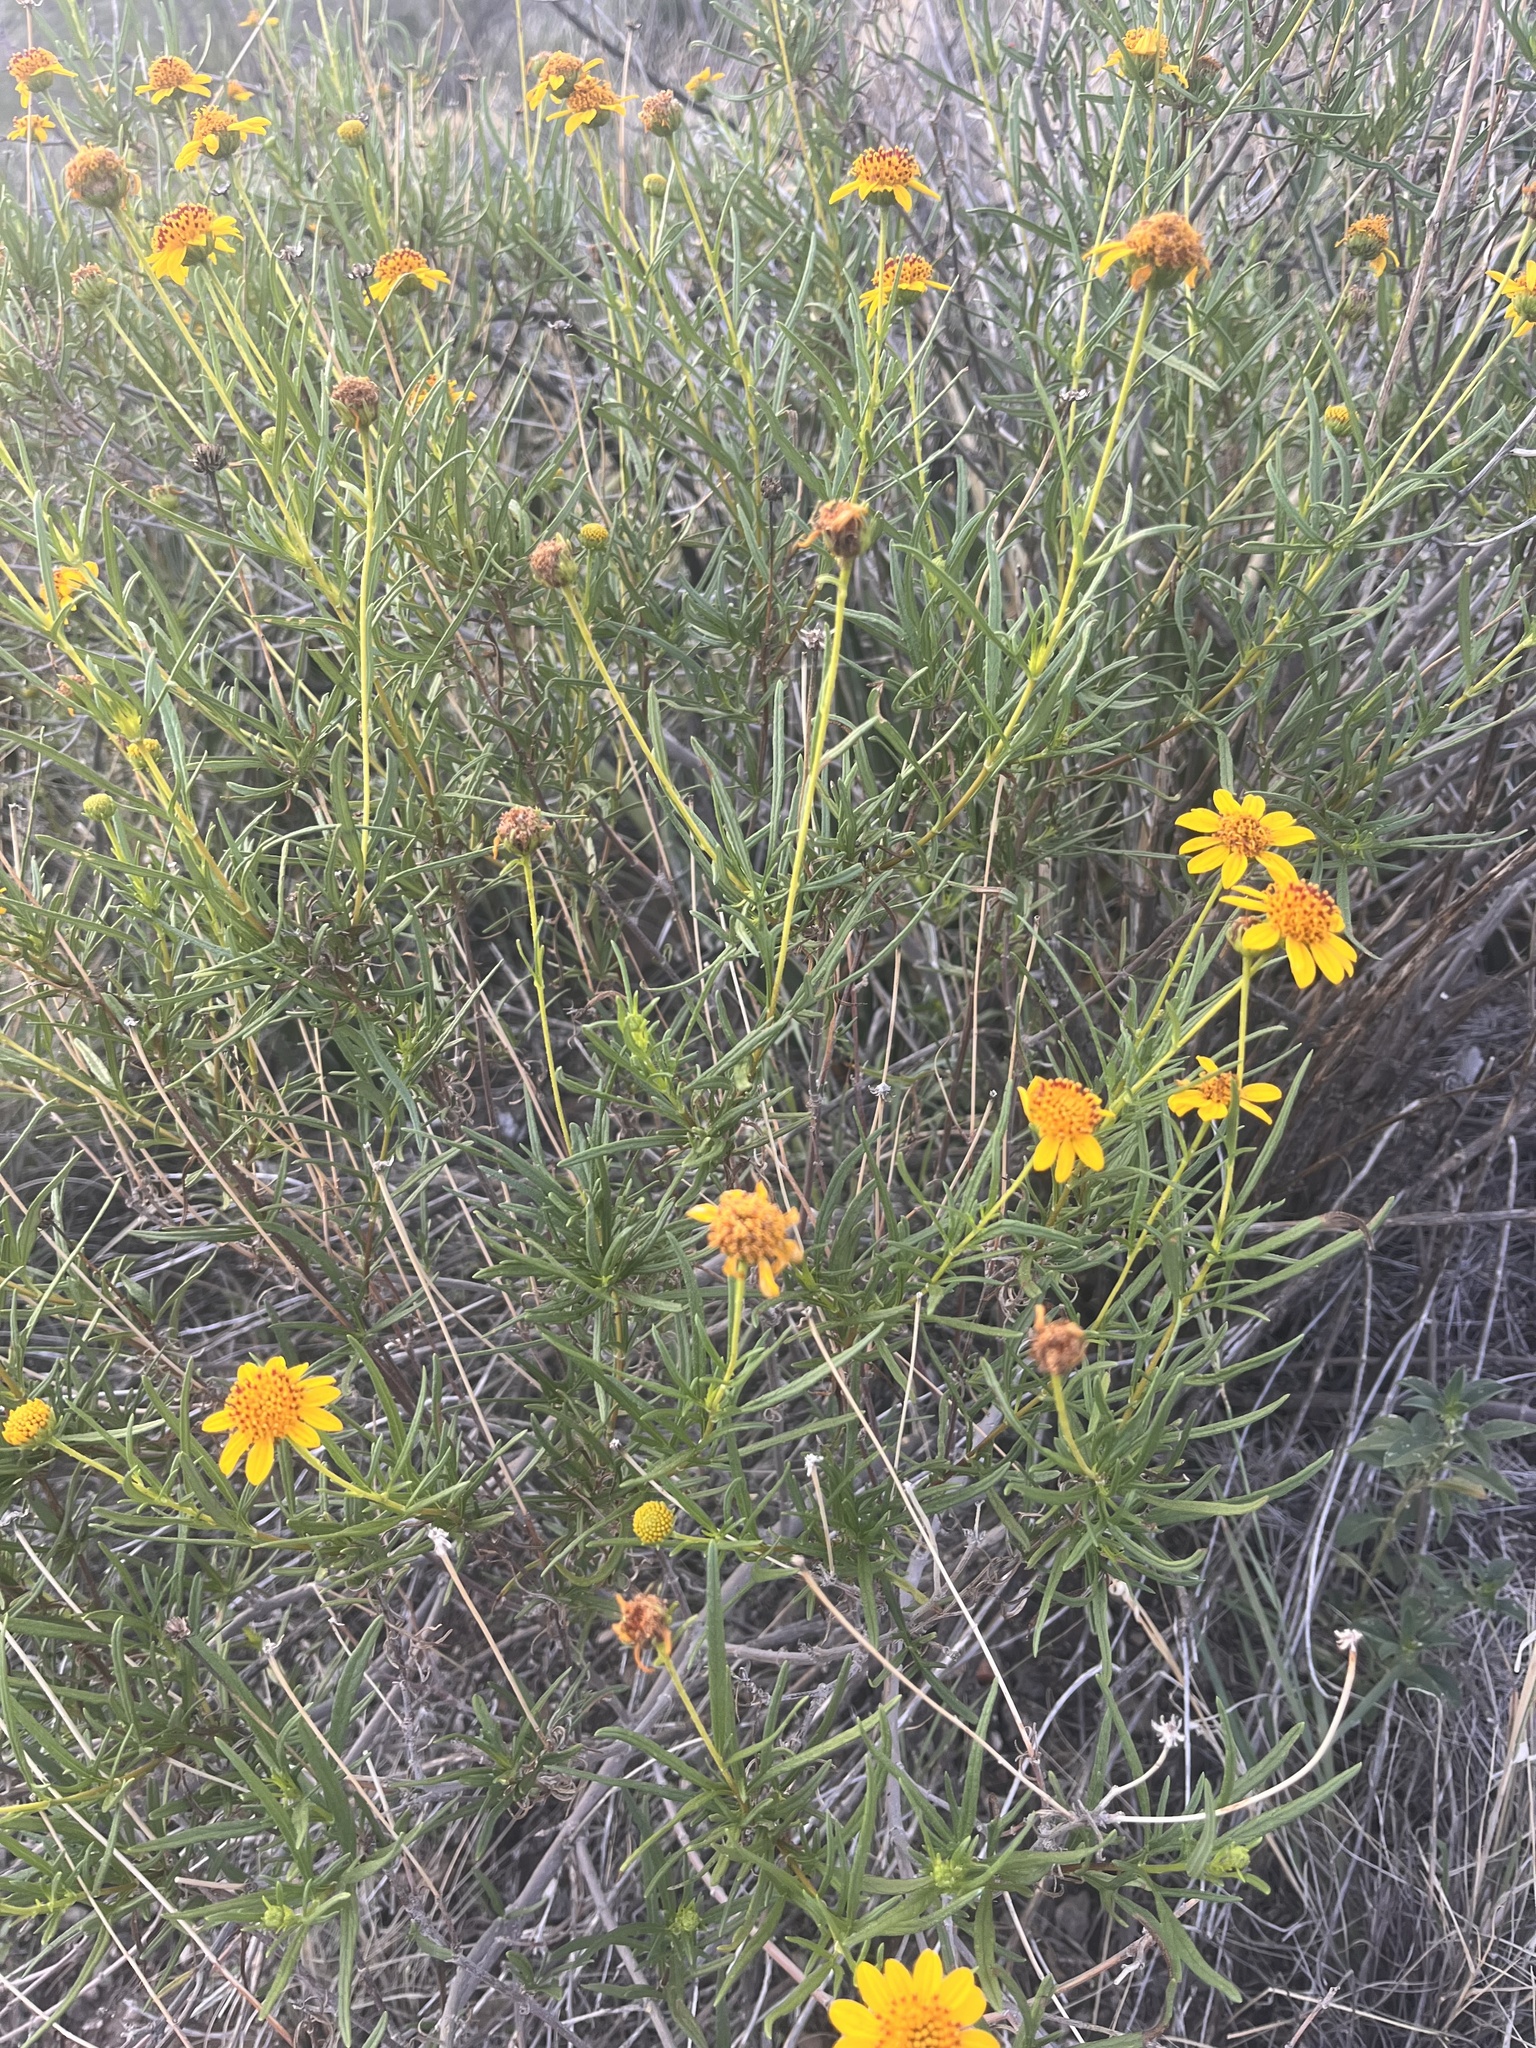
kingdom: Plantae
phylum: Tracheophyta
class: Magnoliopsida
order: Asterales
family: Asteraceae
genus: Sidneya
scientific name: Sidneya tenuifolia
